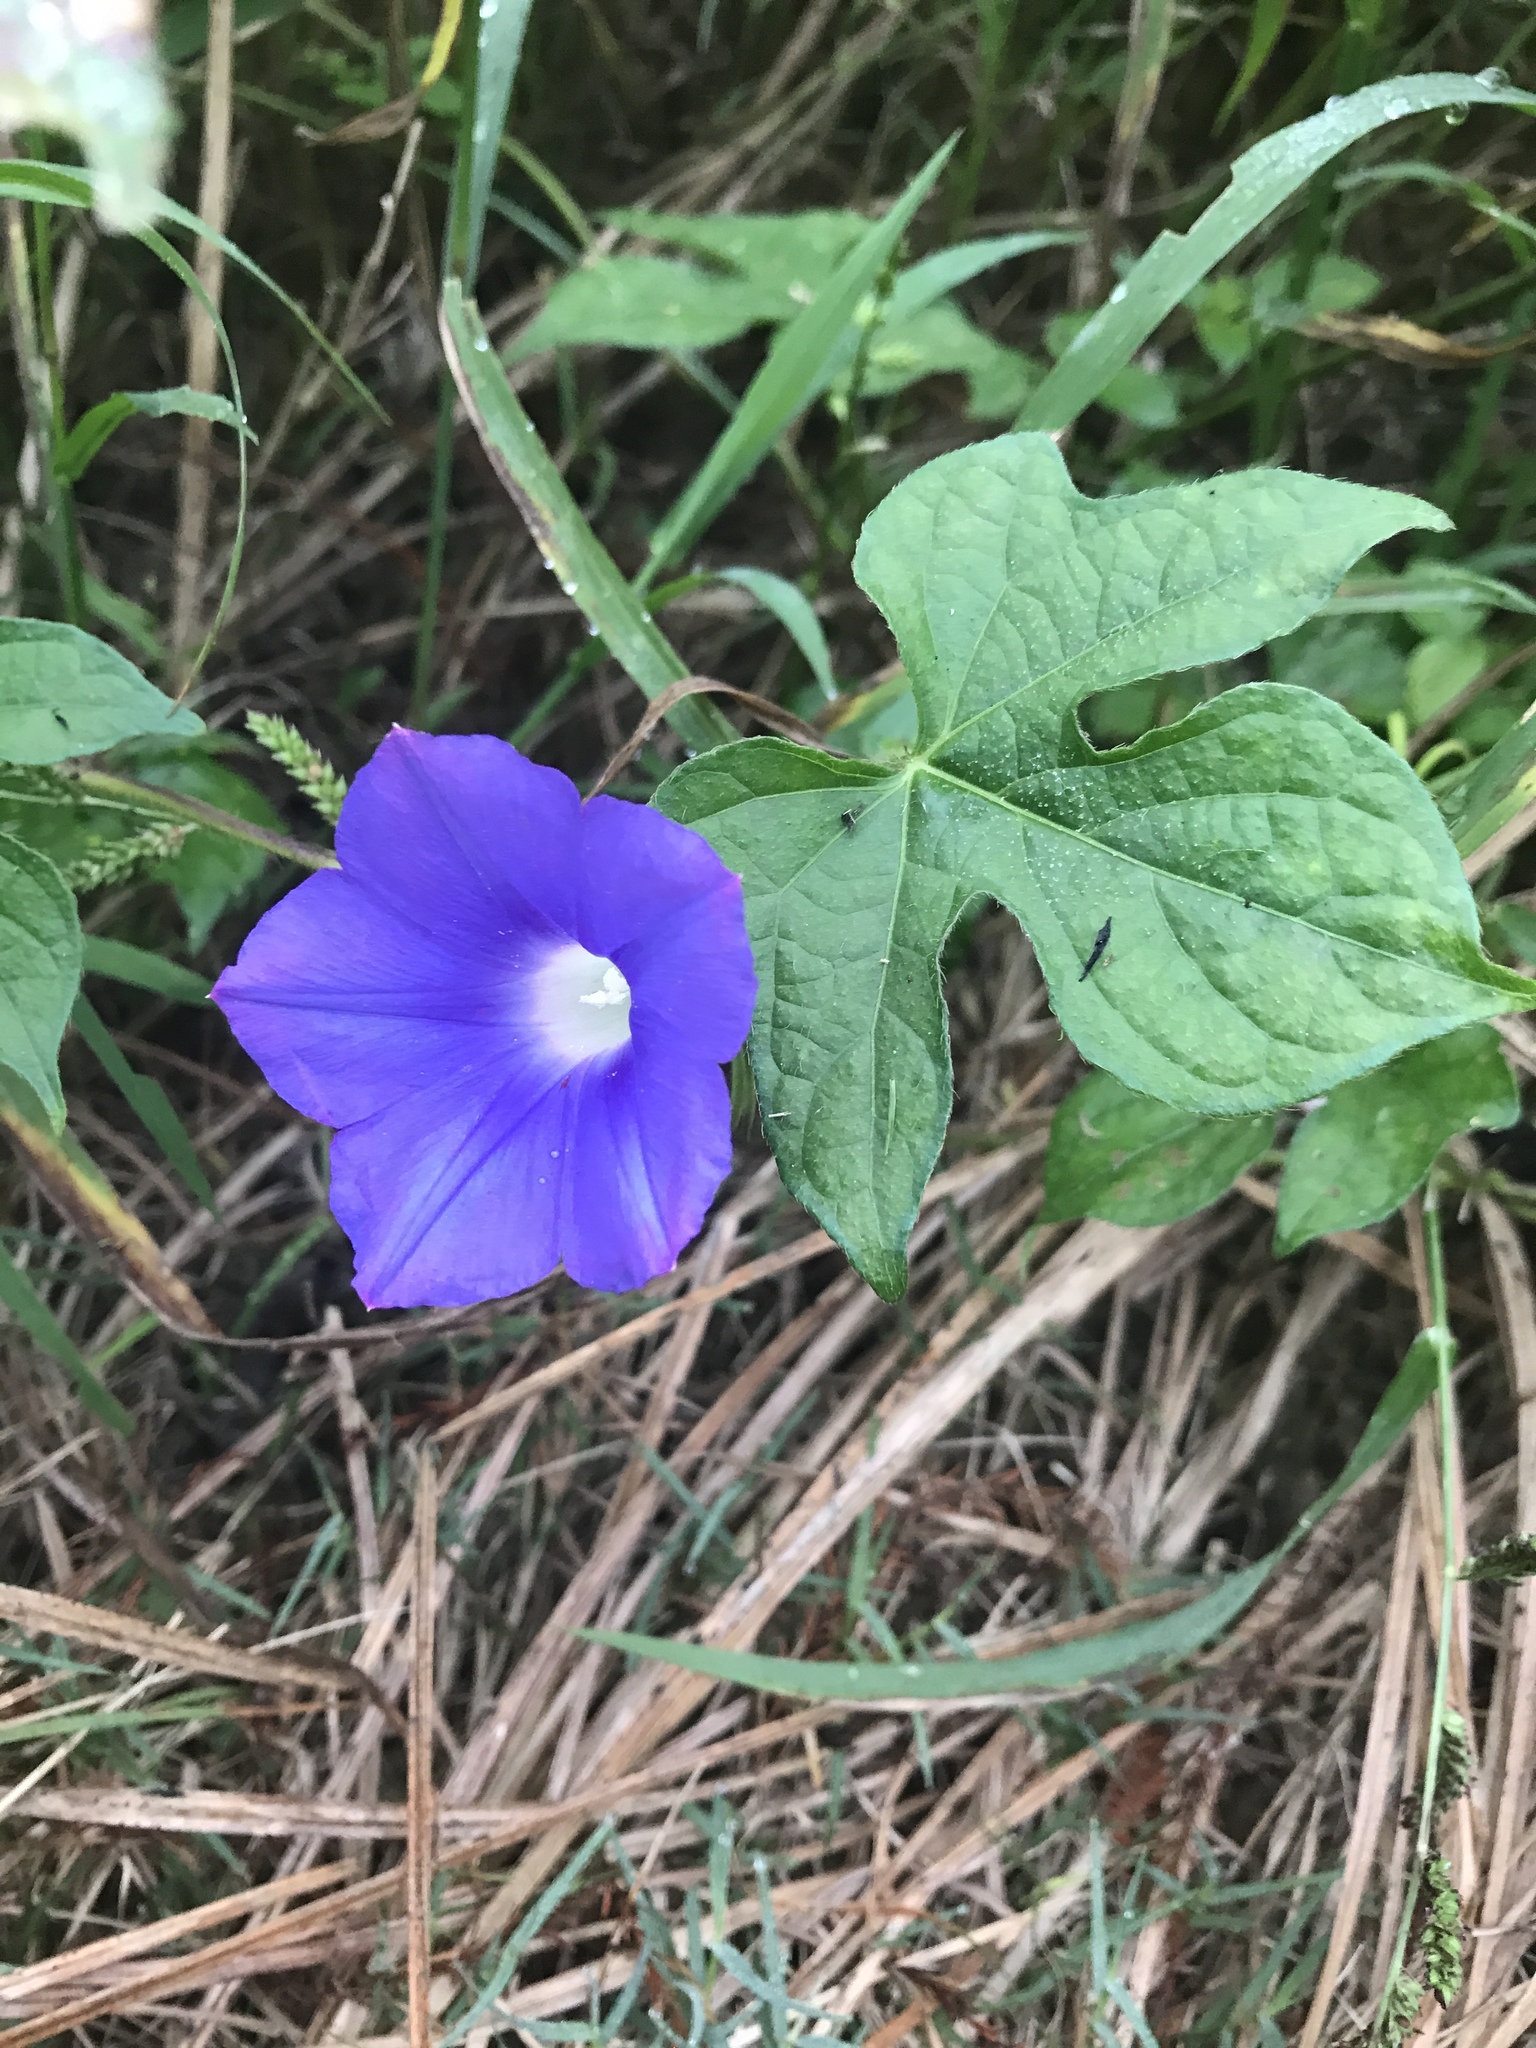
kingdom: Plantae
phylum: Tracheophyta
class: Magnoliopsida
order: Solanales
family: Convolvulaceae
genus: Ipomoea
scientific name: Ipomoea hederacea
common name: Ivy-leaved morning-glory
